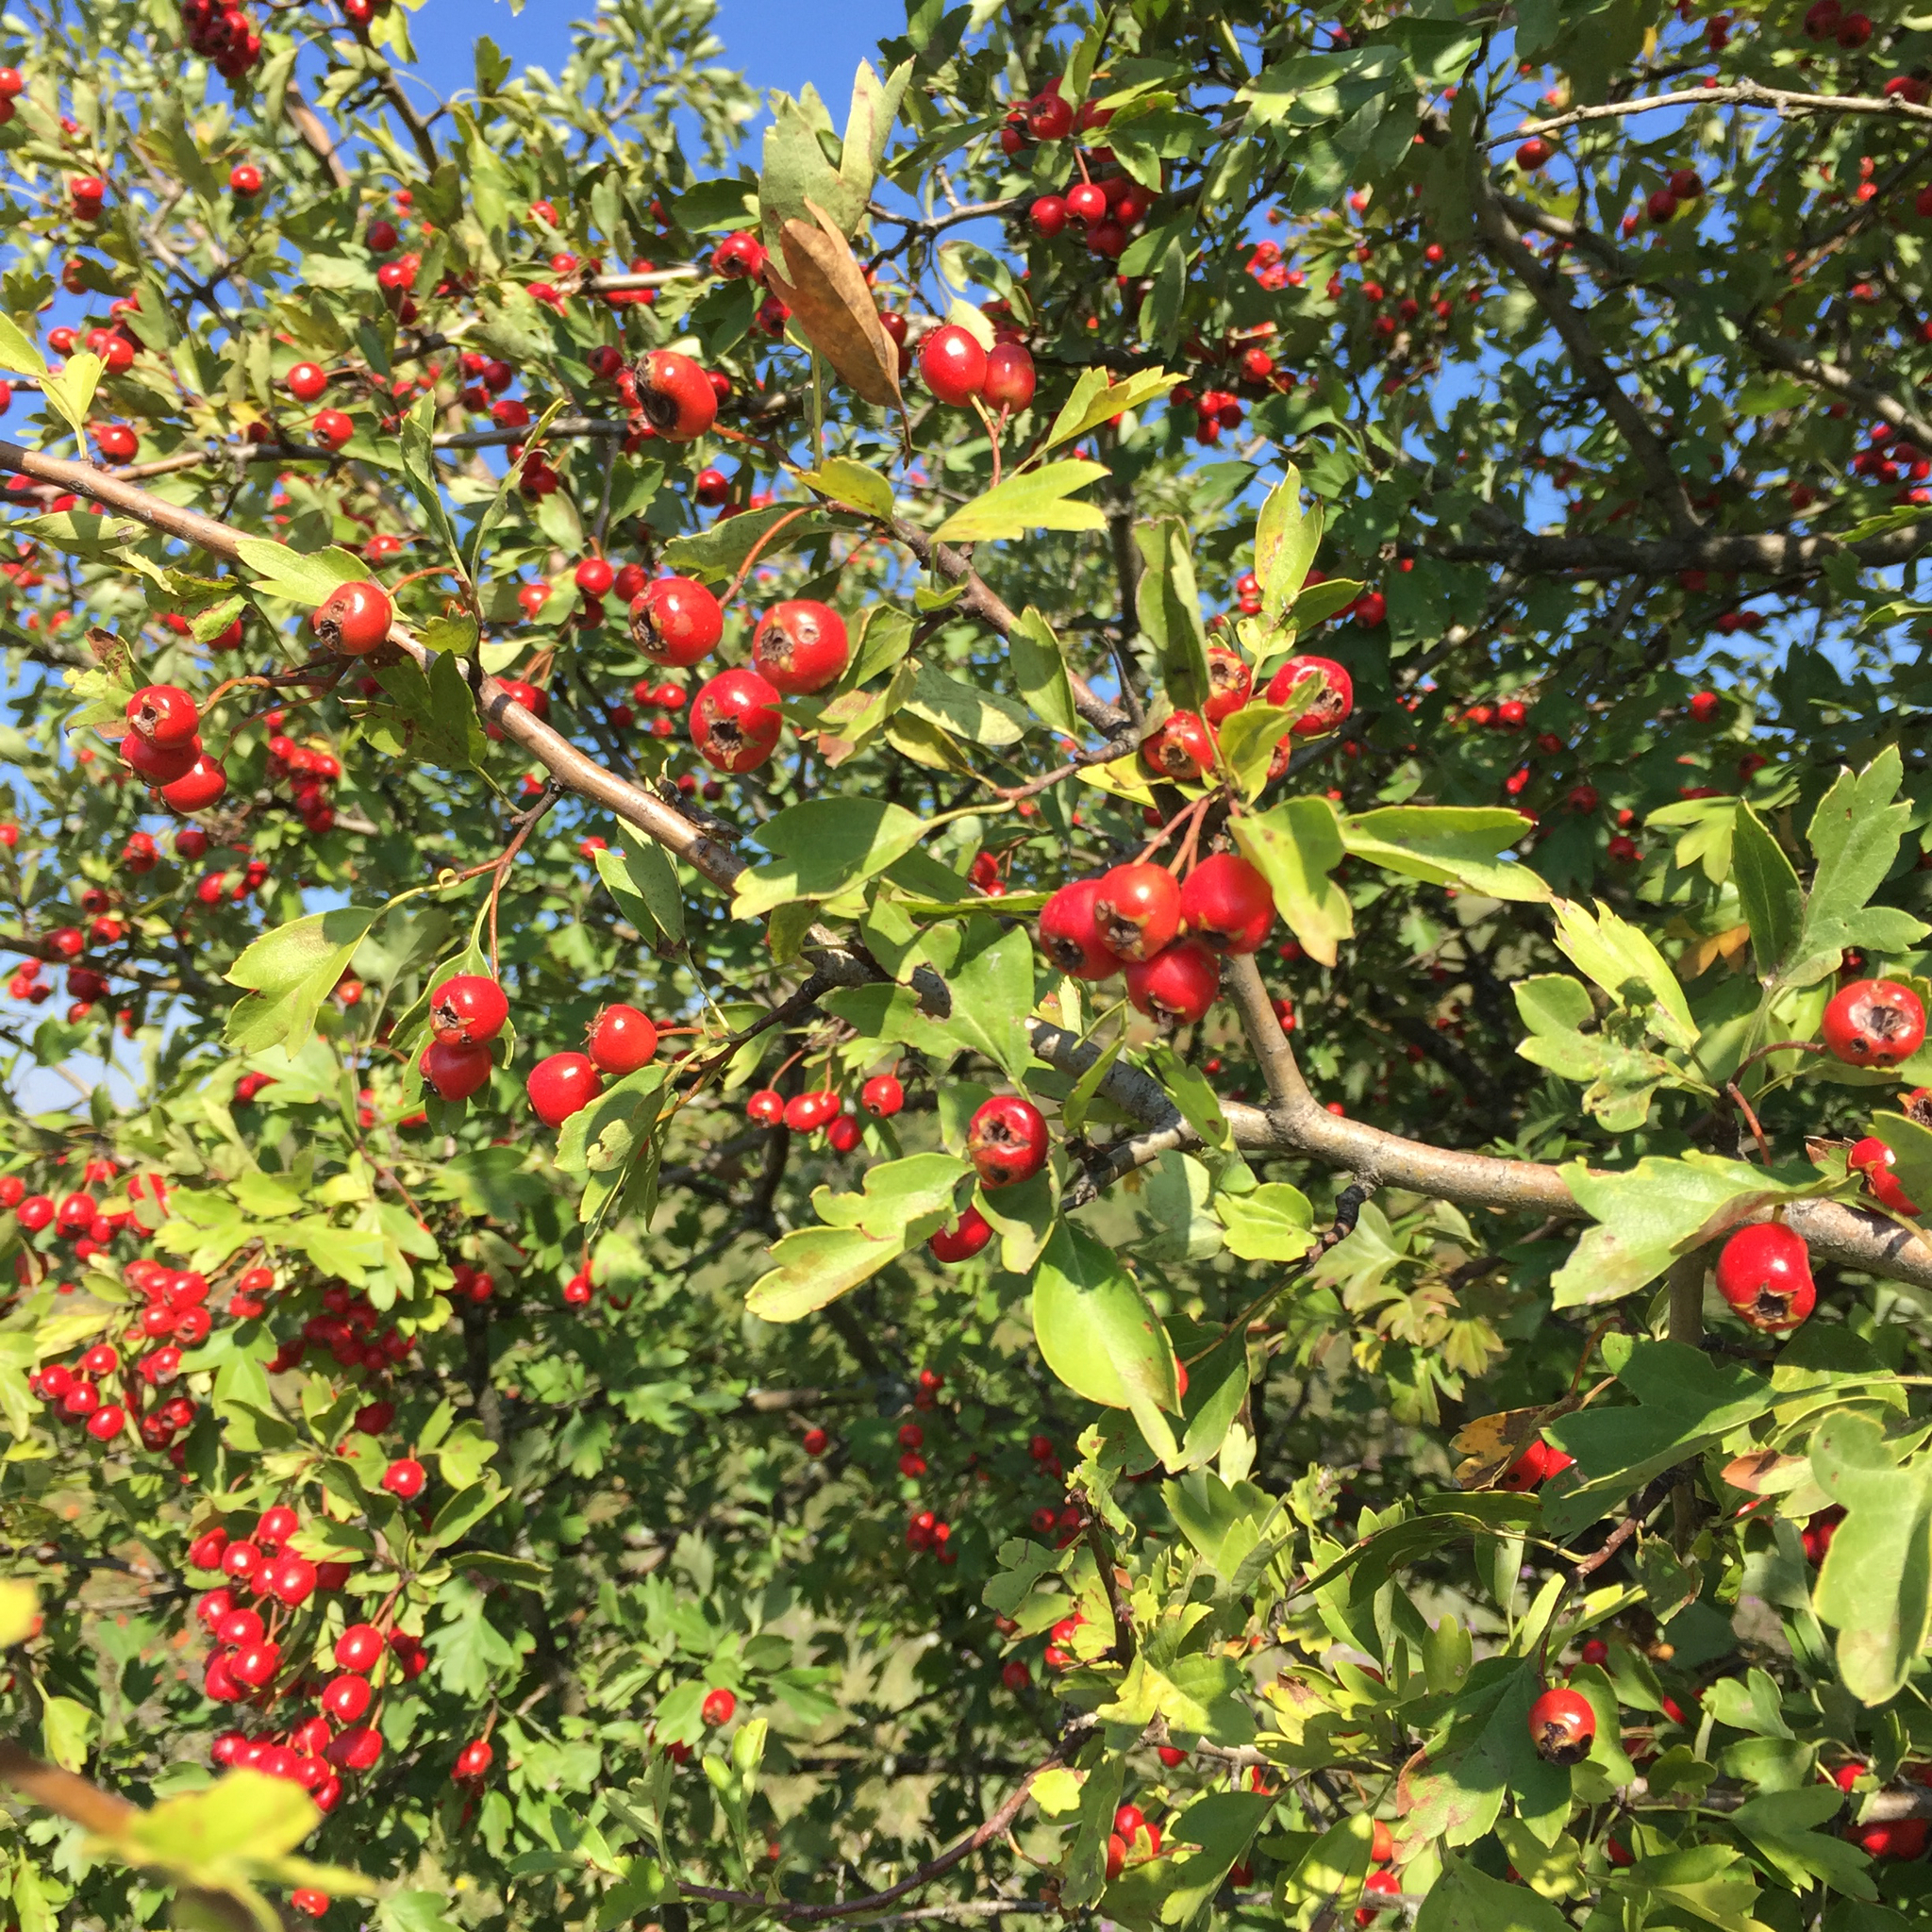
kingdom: Plantae
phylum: Tracheophyta
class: Magnoliopsida
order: Rosales
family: Rosaceae
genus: Crataegus
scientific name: Crataegus monogyna
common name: Hawthorn
